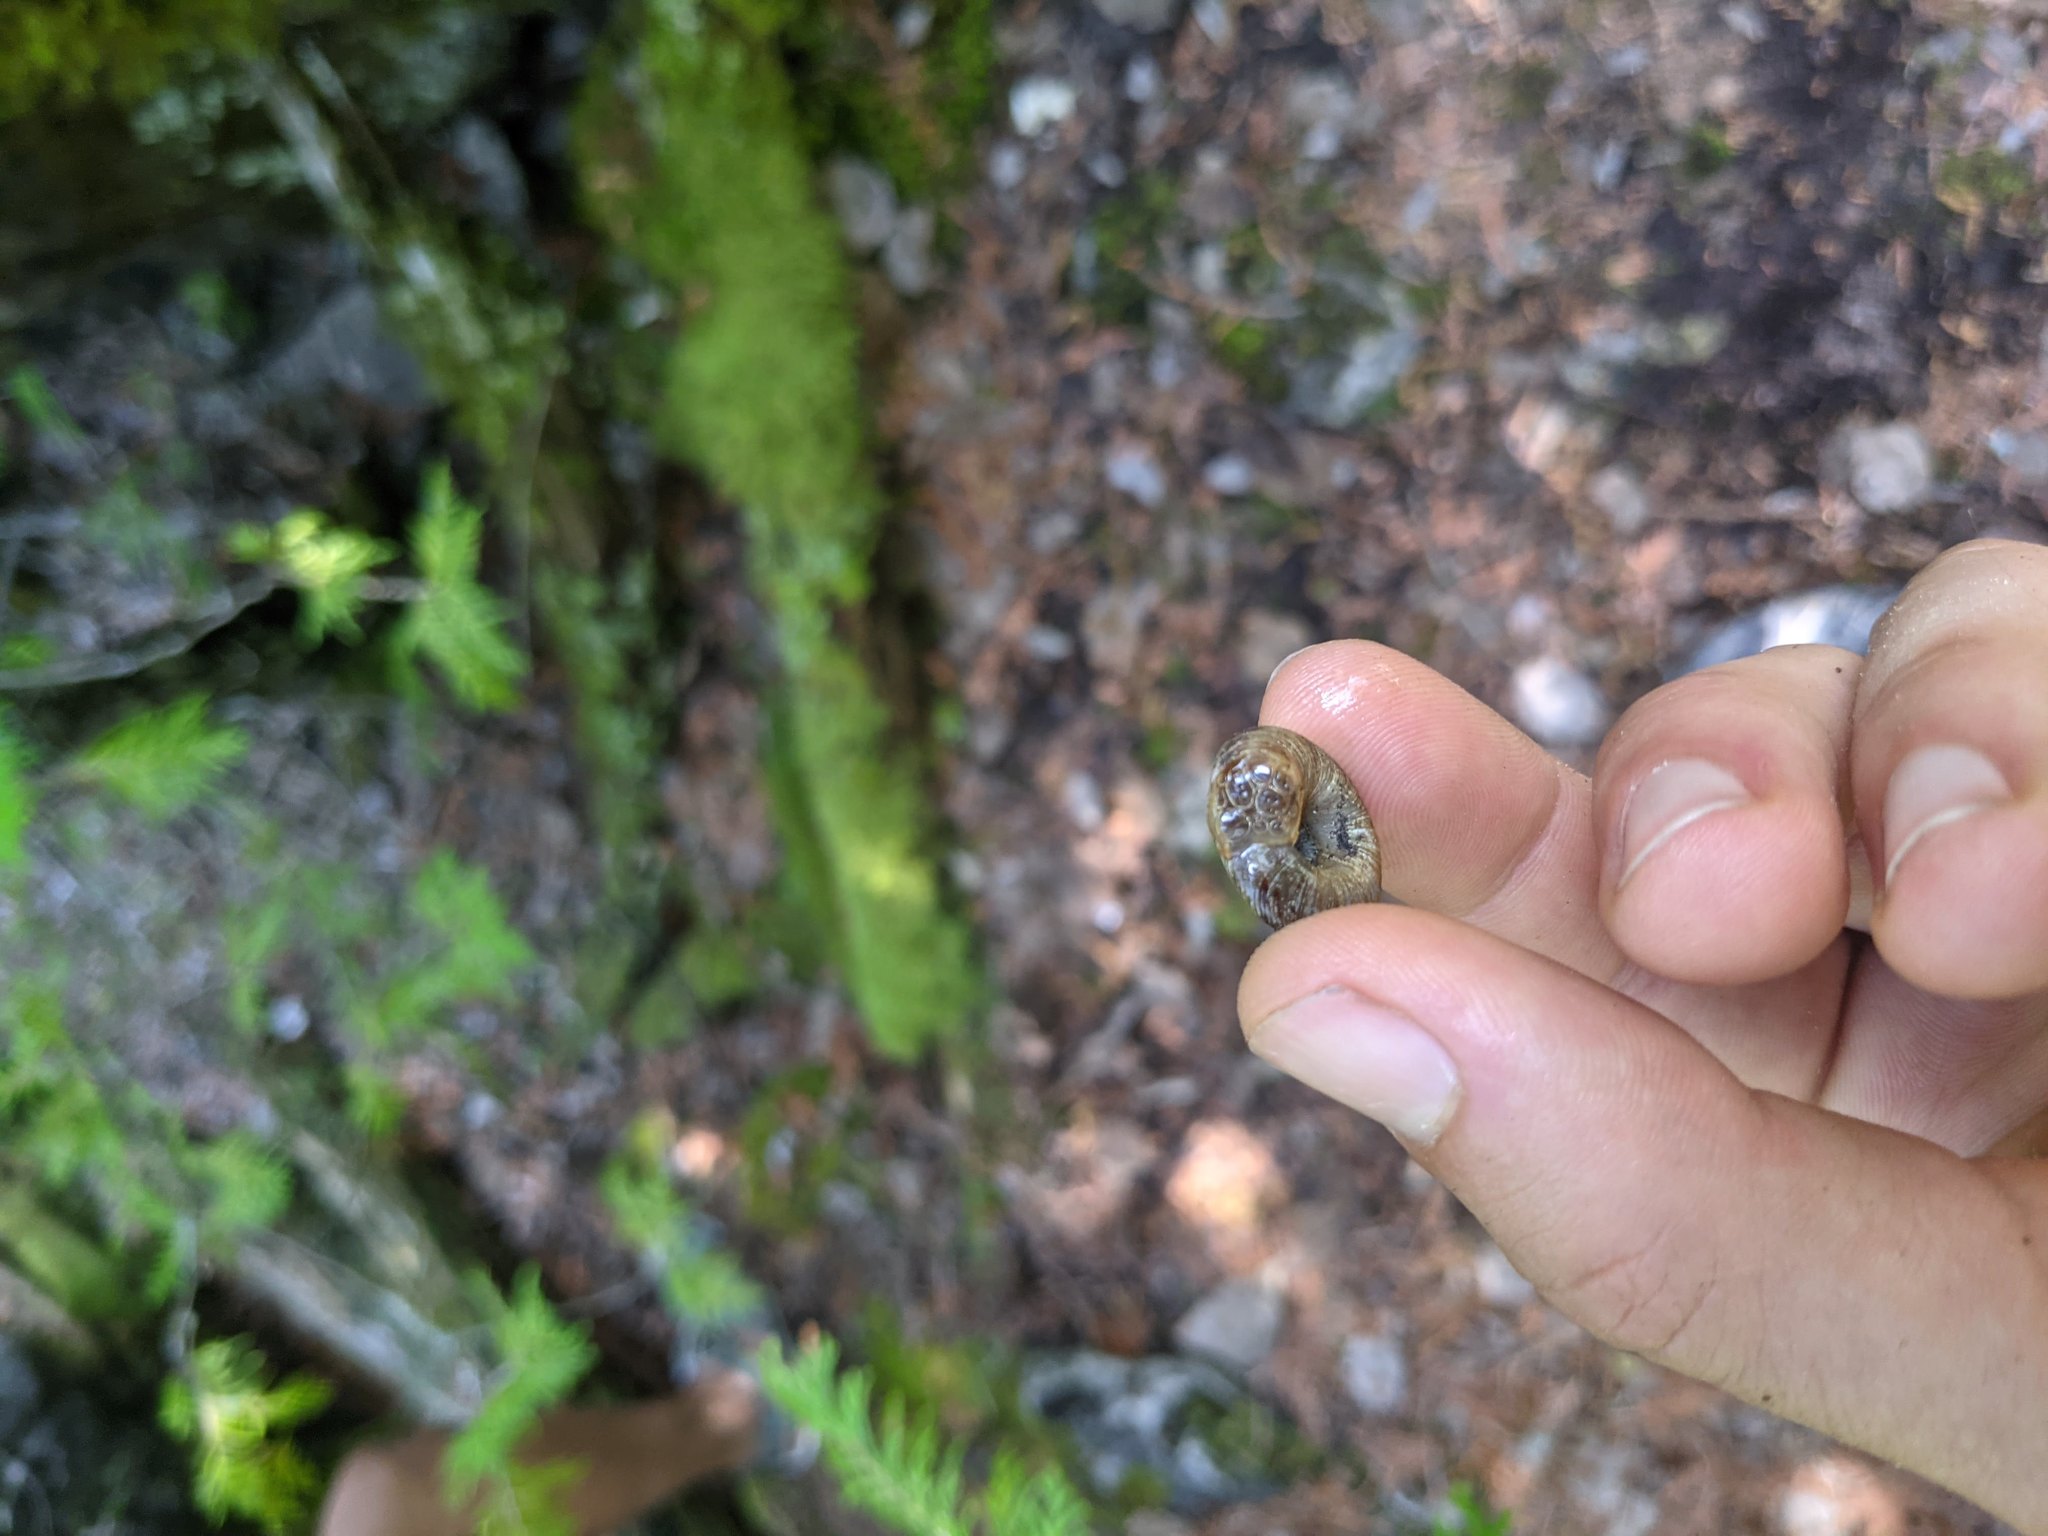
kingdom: Animalia
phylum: Mollusca
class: Gastropoda
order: Stylommatophora
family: Discidae
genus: Anguispira
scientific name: Anguispira alternata
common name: Flamed tigersnail
